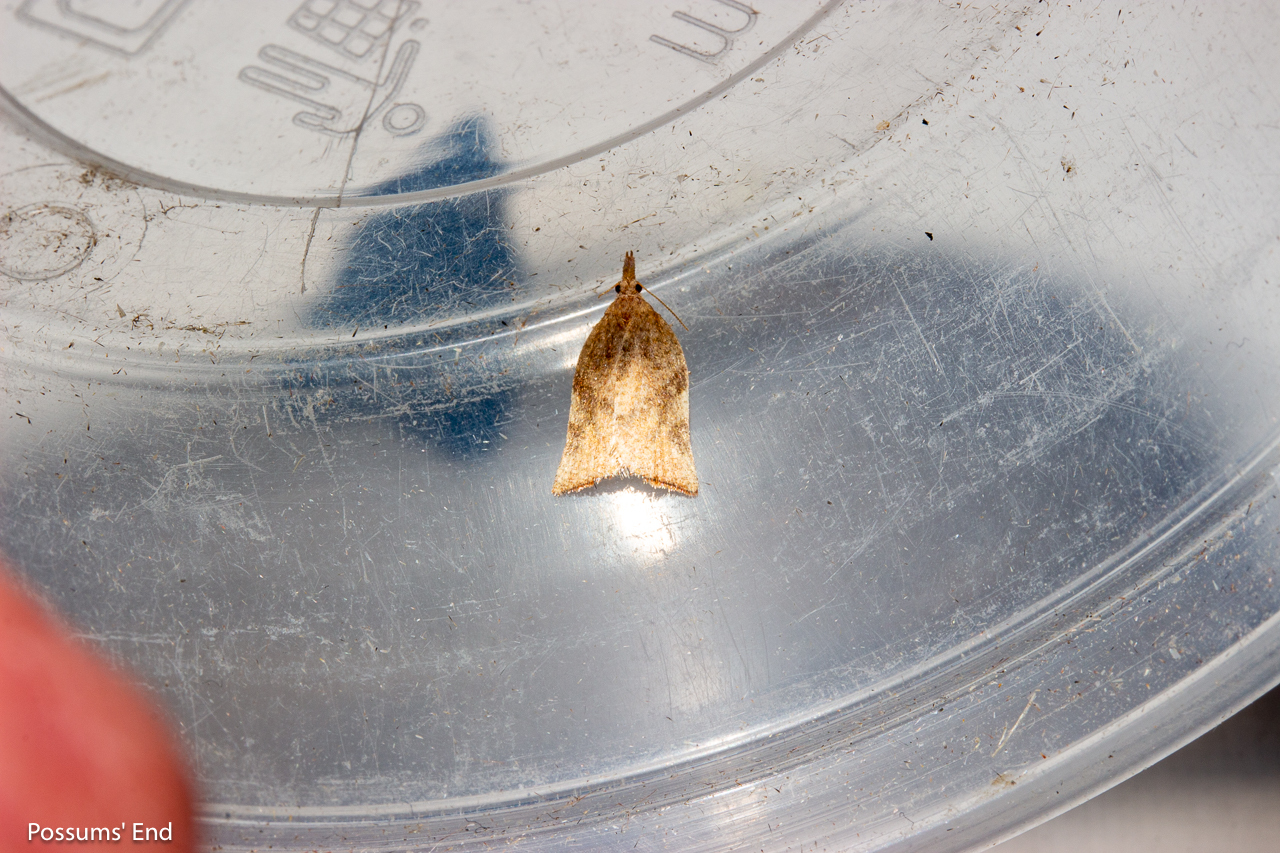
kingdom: Animalia
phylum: Arthropoda
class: Insecta
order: Lepidoptera
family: Tortricidae
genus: Catamacta
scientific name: Catamacta gavisana
